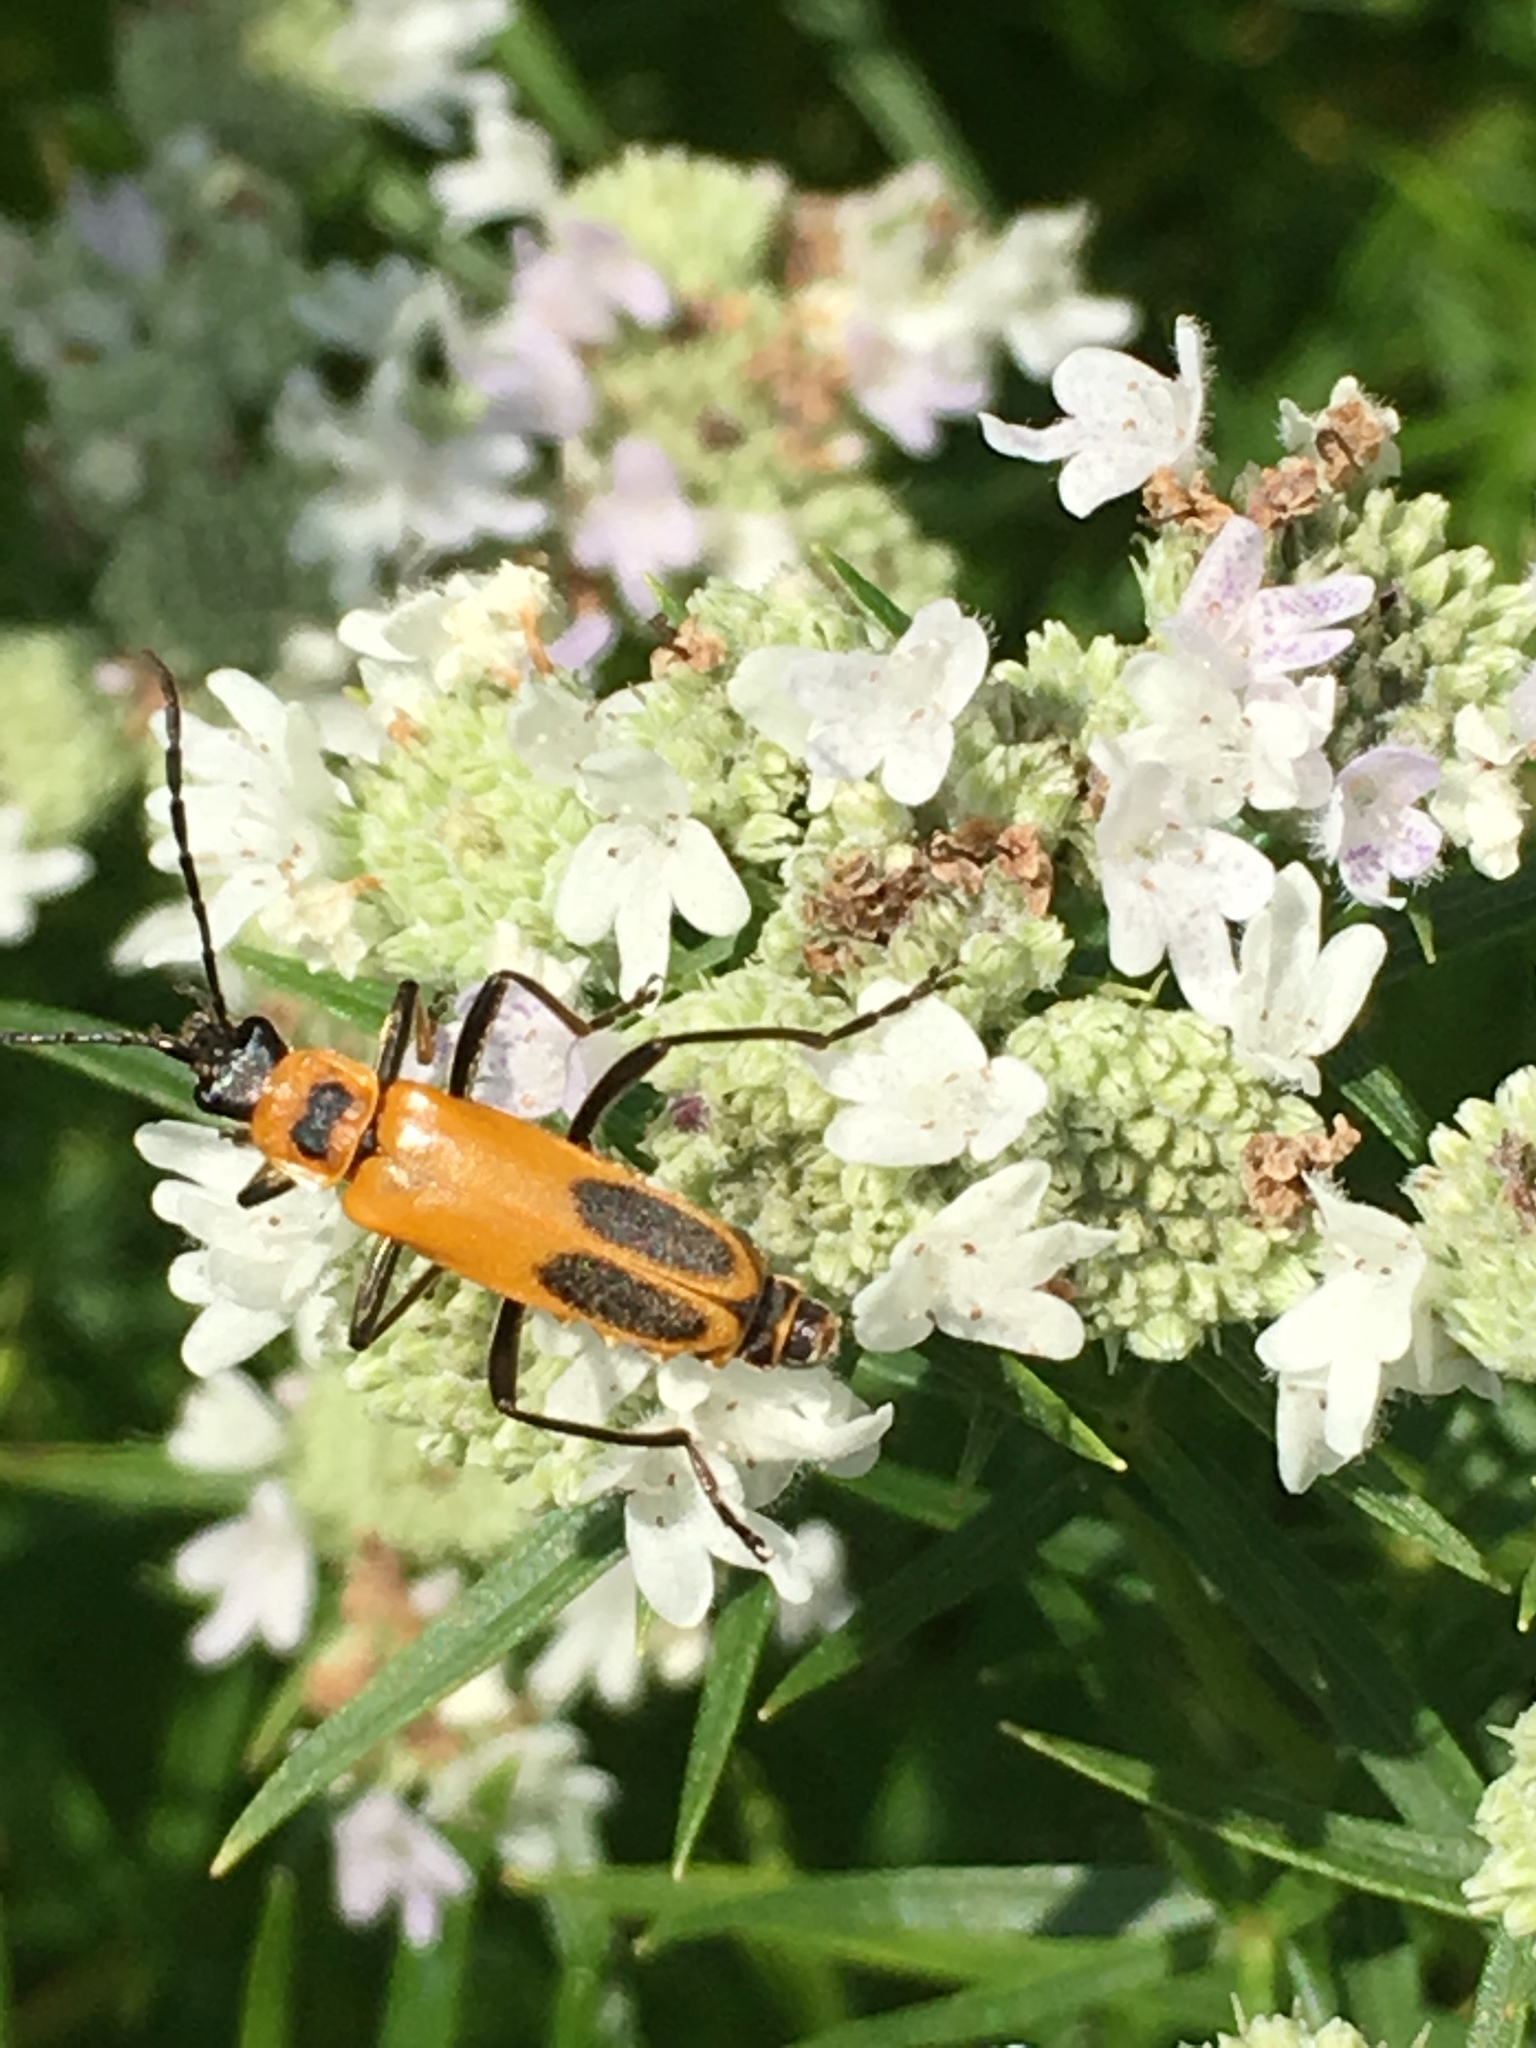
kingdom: Animalia
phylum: Arthropoda
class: Insecta
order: Coleoptera
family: Cantharidae
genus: Chauliognathus
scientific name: Chauliognathus pensylvanicus
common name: Goldenrod soldier beetle
